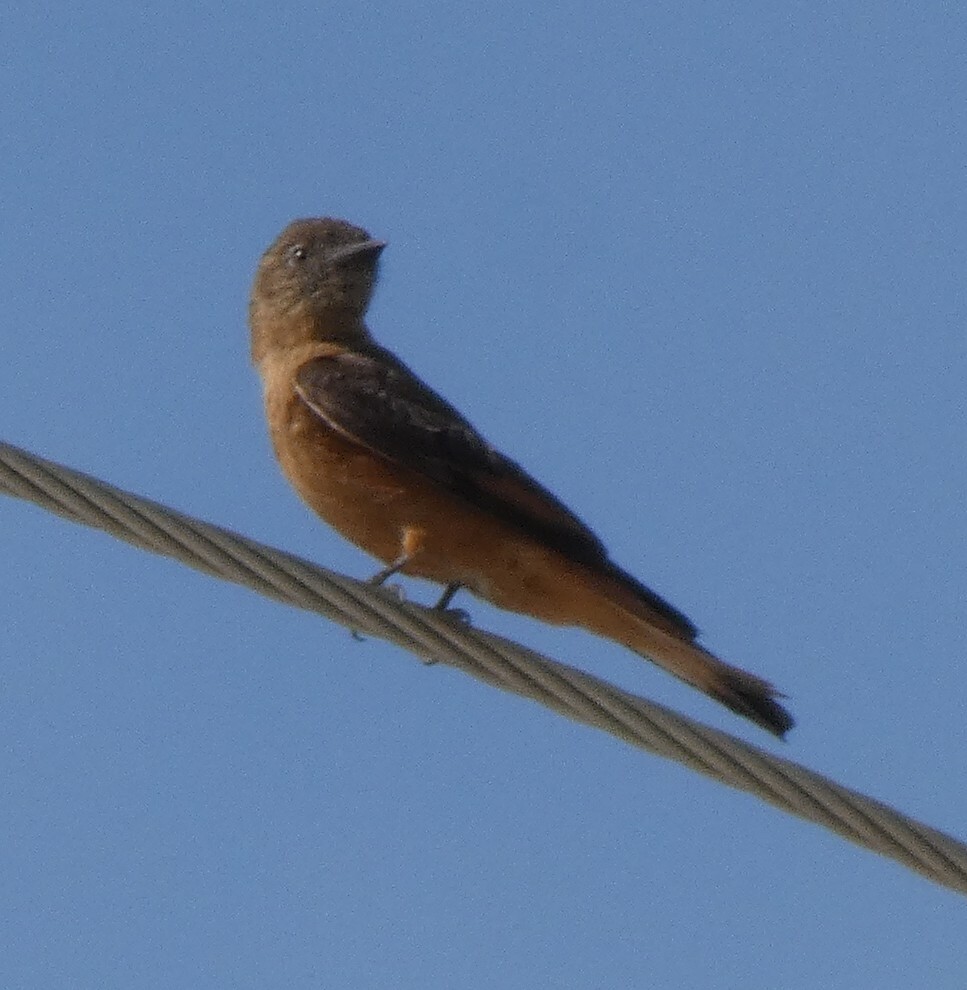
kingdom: Animalia
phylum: Chordata
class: Aves
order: Passeriformes
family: Tyrannidae
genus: Hirundinea
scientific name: Hirundinea ferruginea
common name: Cliff flycatcher
